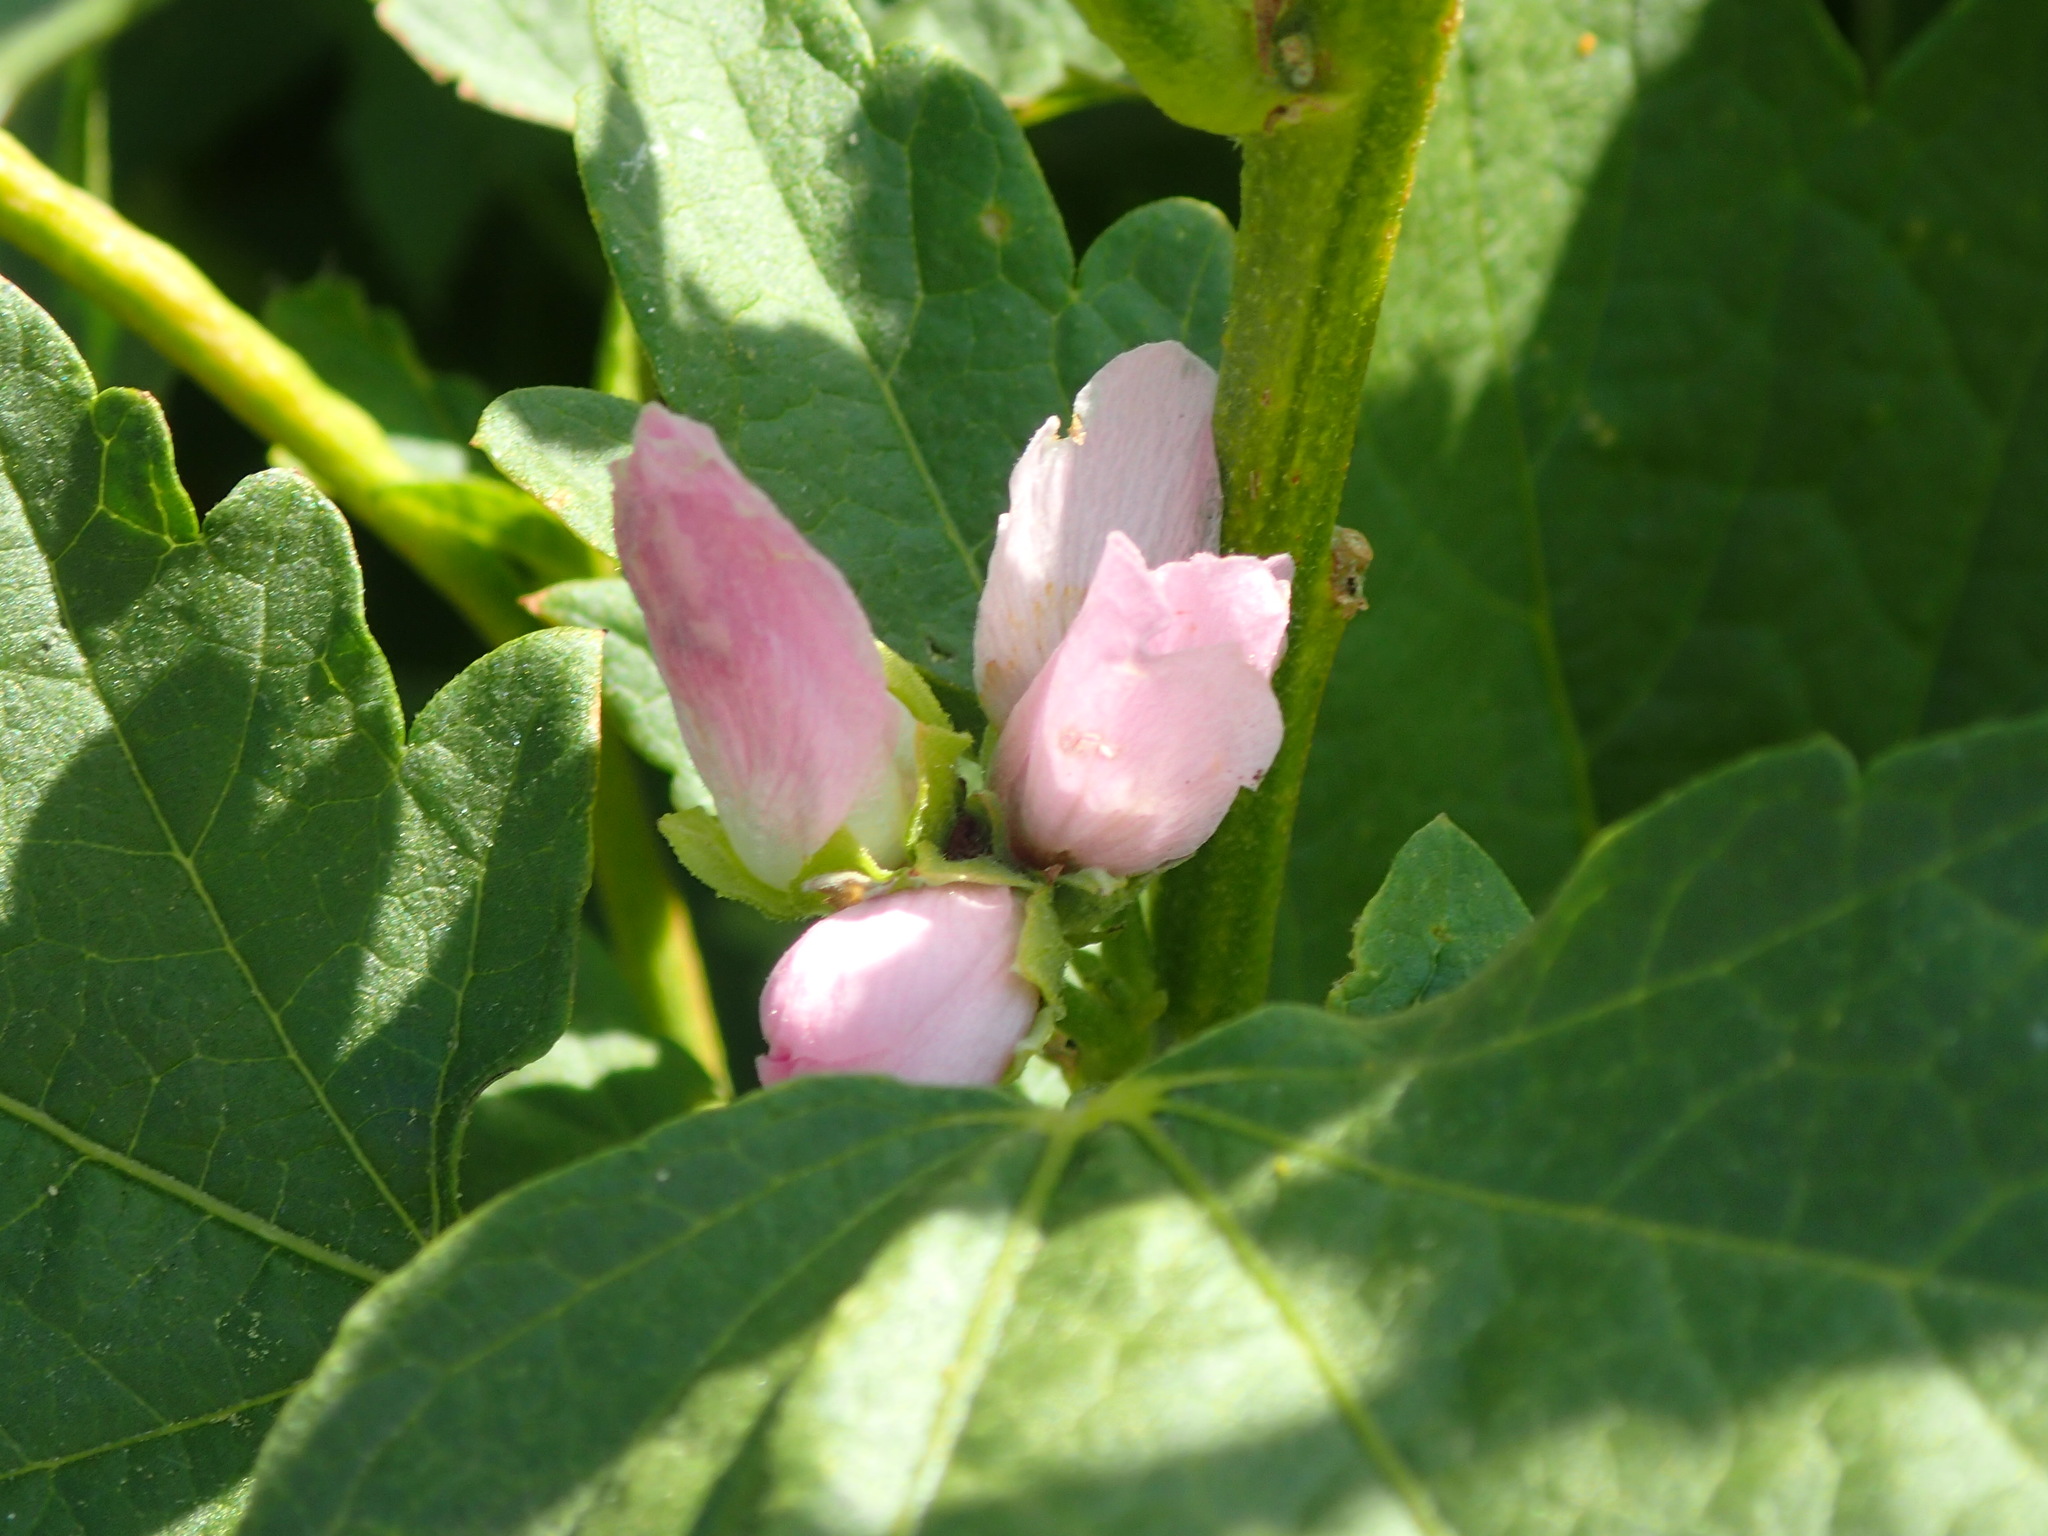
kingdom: Plantae
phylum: Tracheophyta
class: Magnoliopsida
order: Malvales
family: Malvaceae
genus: Iliamna
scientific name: Iliamna rivularis
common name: Wild hollyhock
